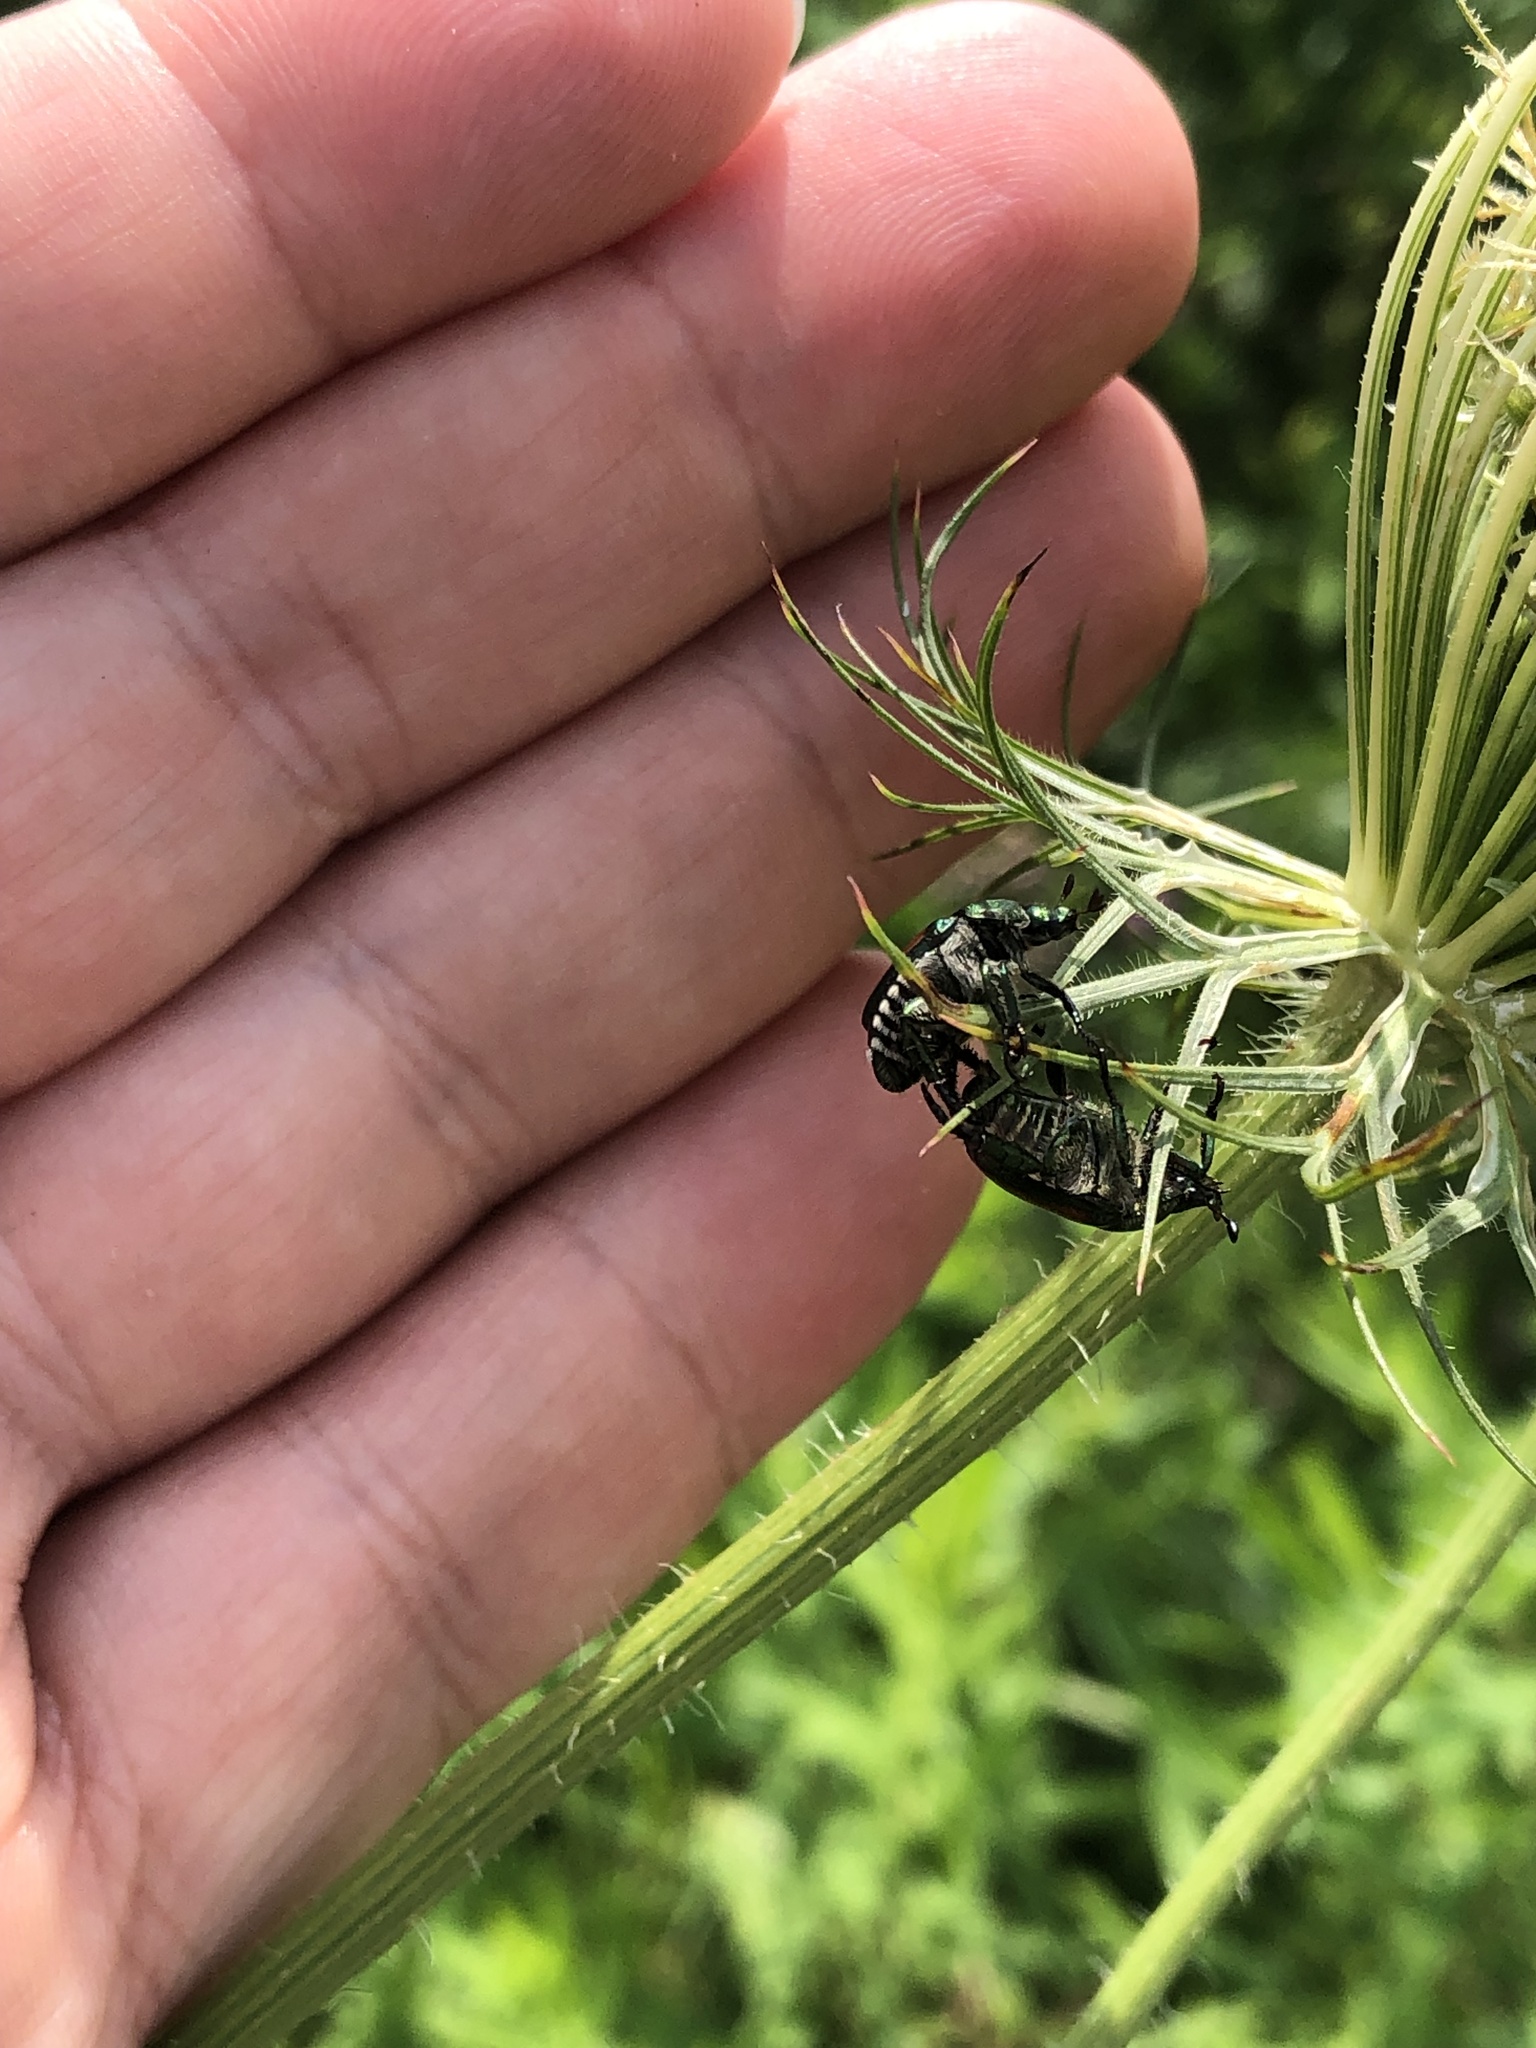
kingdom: Animalia
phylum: Arthropoda
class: Insecta
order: Coleoptera
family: Scarabaeidae
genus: Popillia
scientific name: Popillia japonica
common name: Japanese beetle
